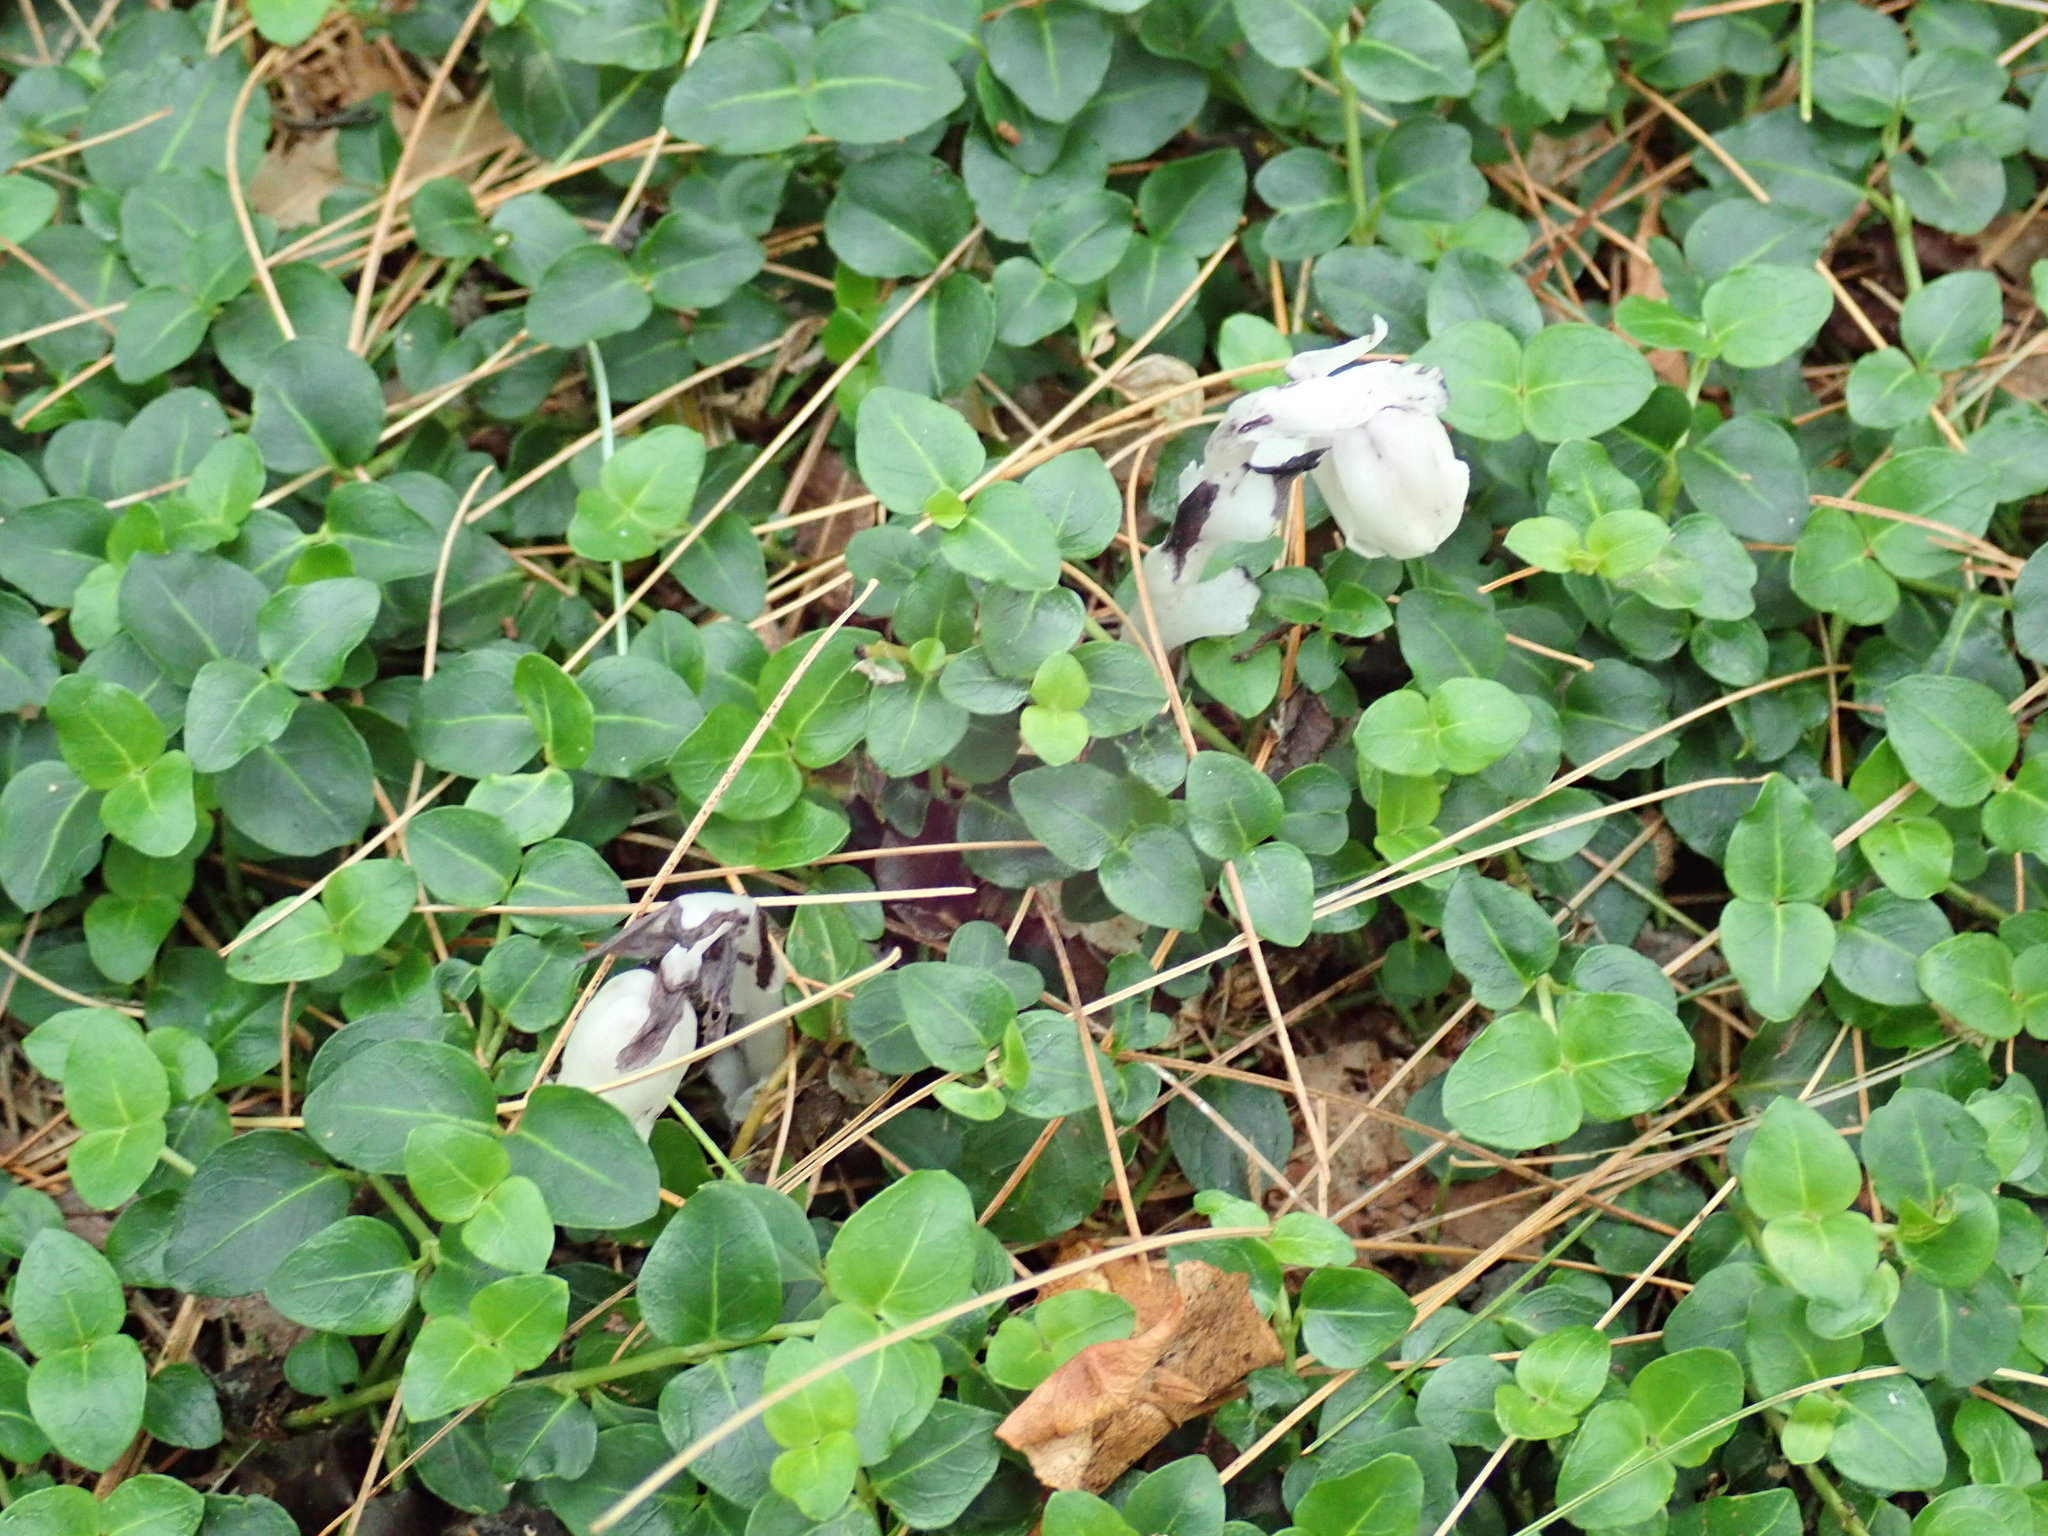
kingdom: Plantae
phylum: Tracheophyta
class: Magnoliopsida
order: Ericales
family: Ericaceae
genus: Monotropa
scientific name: Monotropa uniflora
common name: Convulsion root
